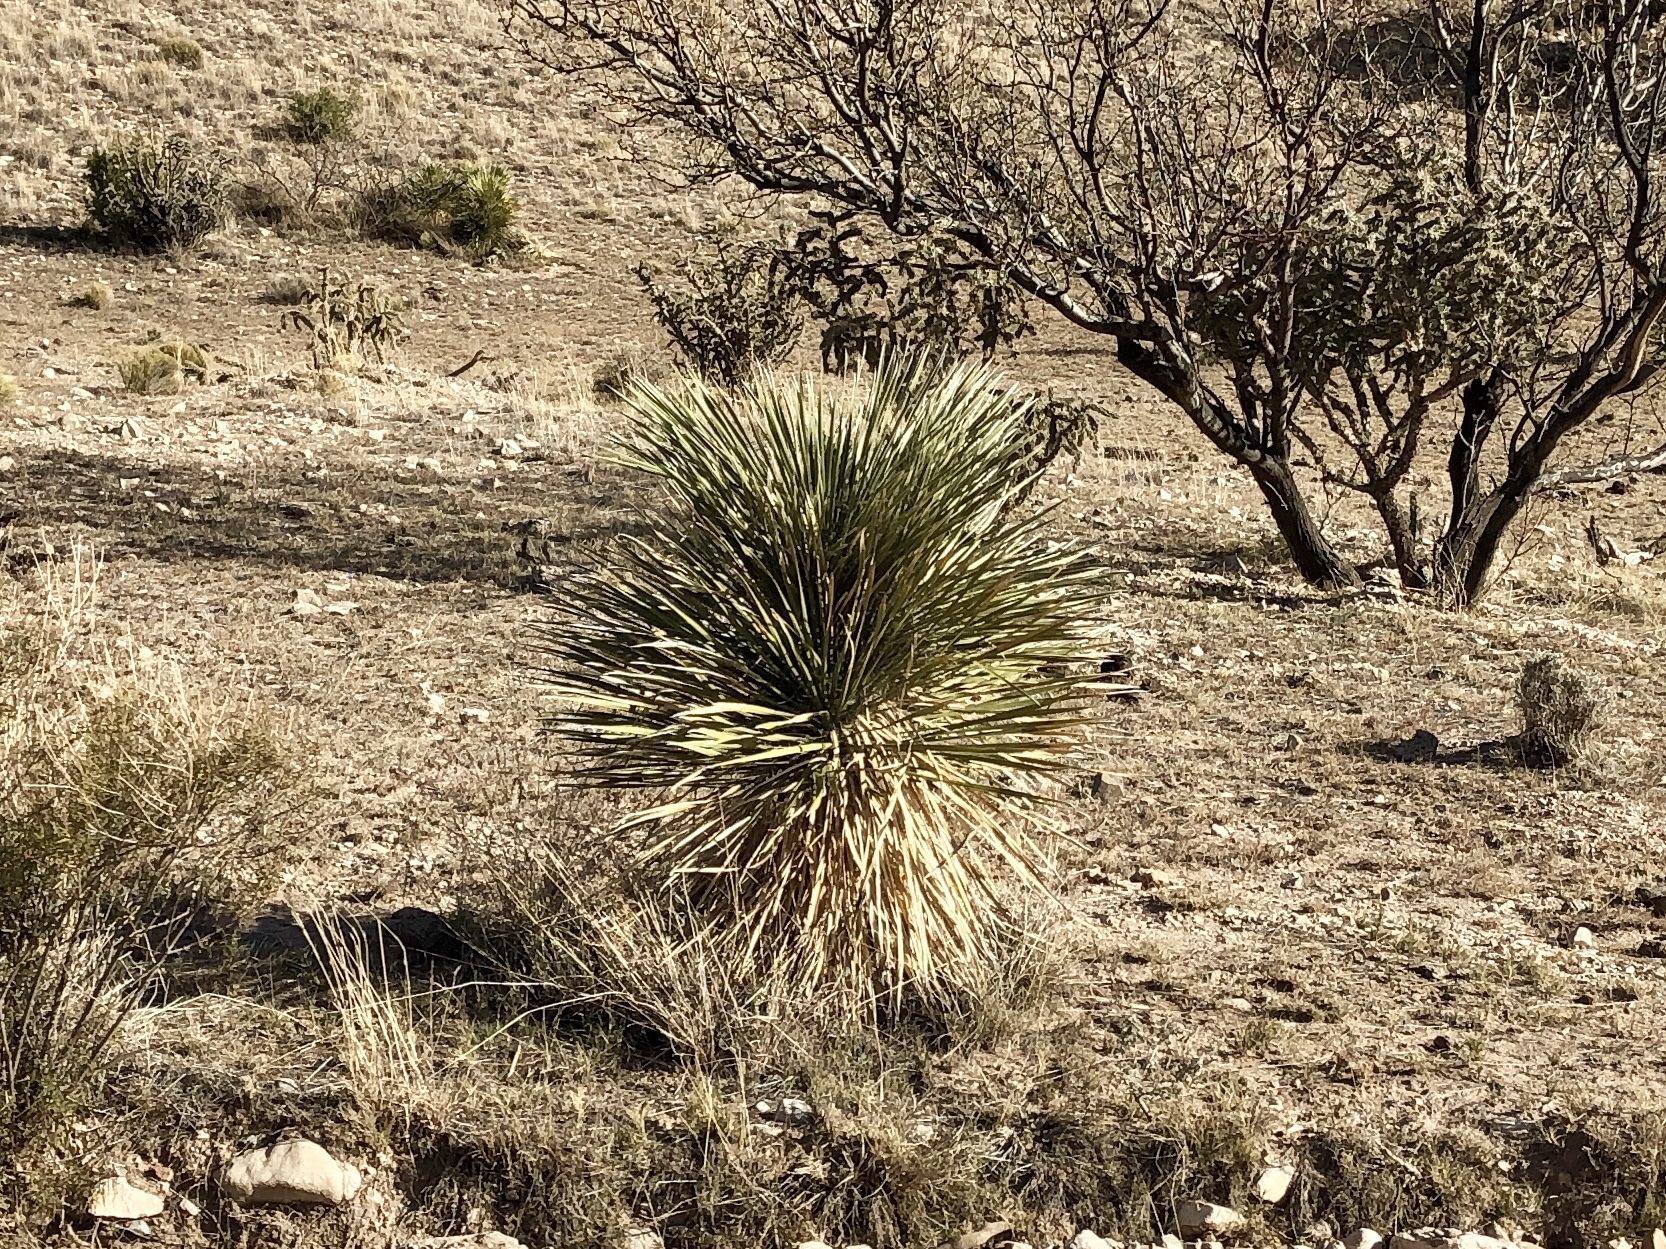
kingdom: Plantae
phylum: Tracheophyta
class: Liliopsida
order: Asparagales
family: Asparagaceae
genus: Yucca
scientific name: Yucca elata
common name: Palmella
